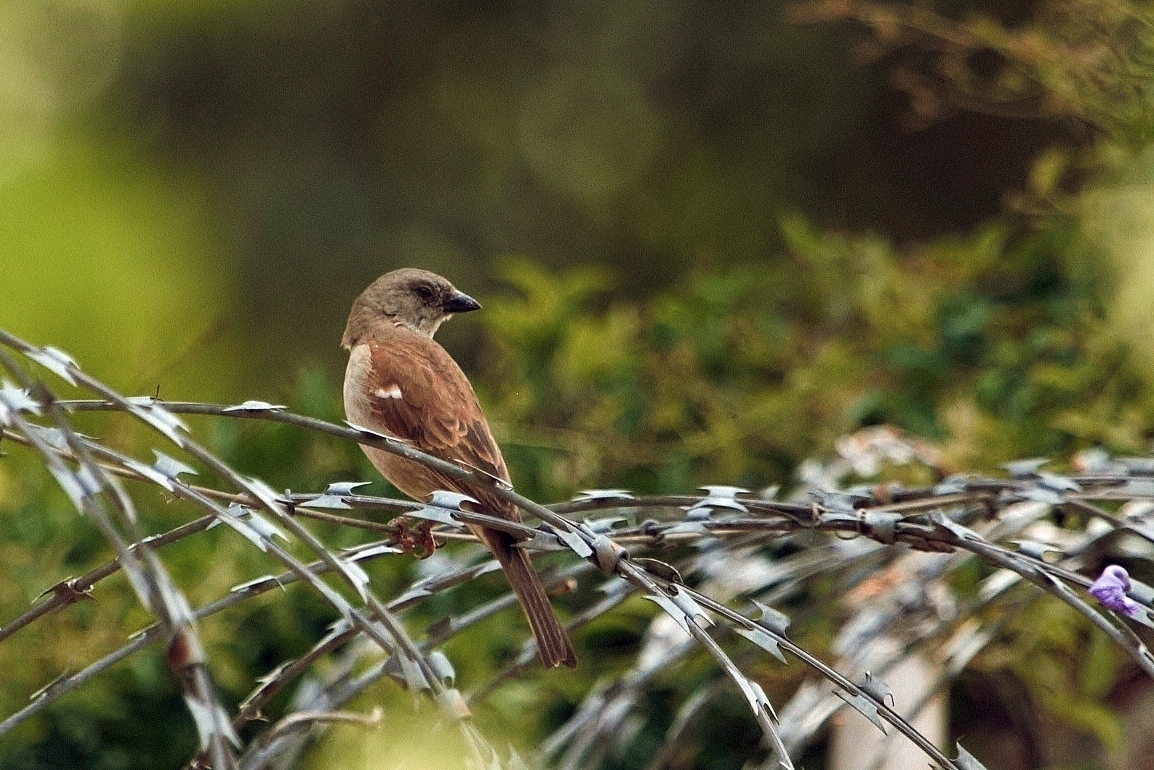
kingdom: Animalia
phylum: Chordata
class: Aves
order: Passeriformes
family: Passeridae
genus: Passer
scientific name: Passer diffusus
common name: Southern grey-headed sparrow
